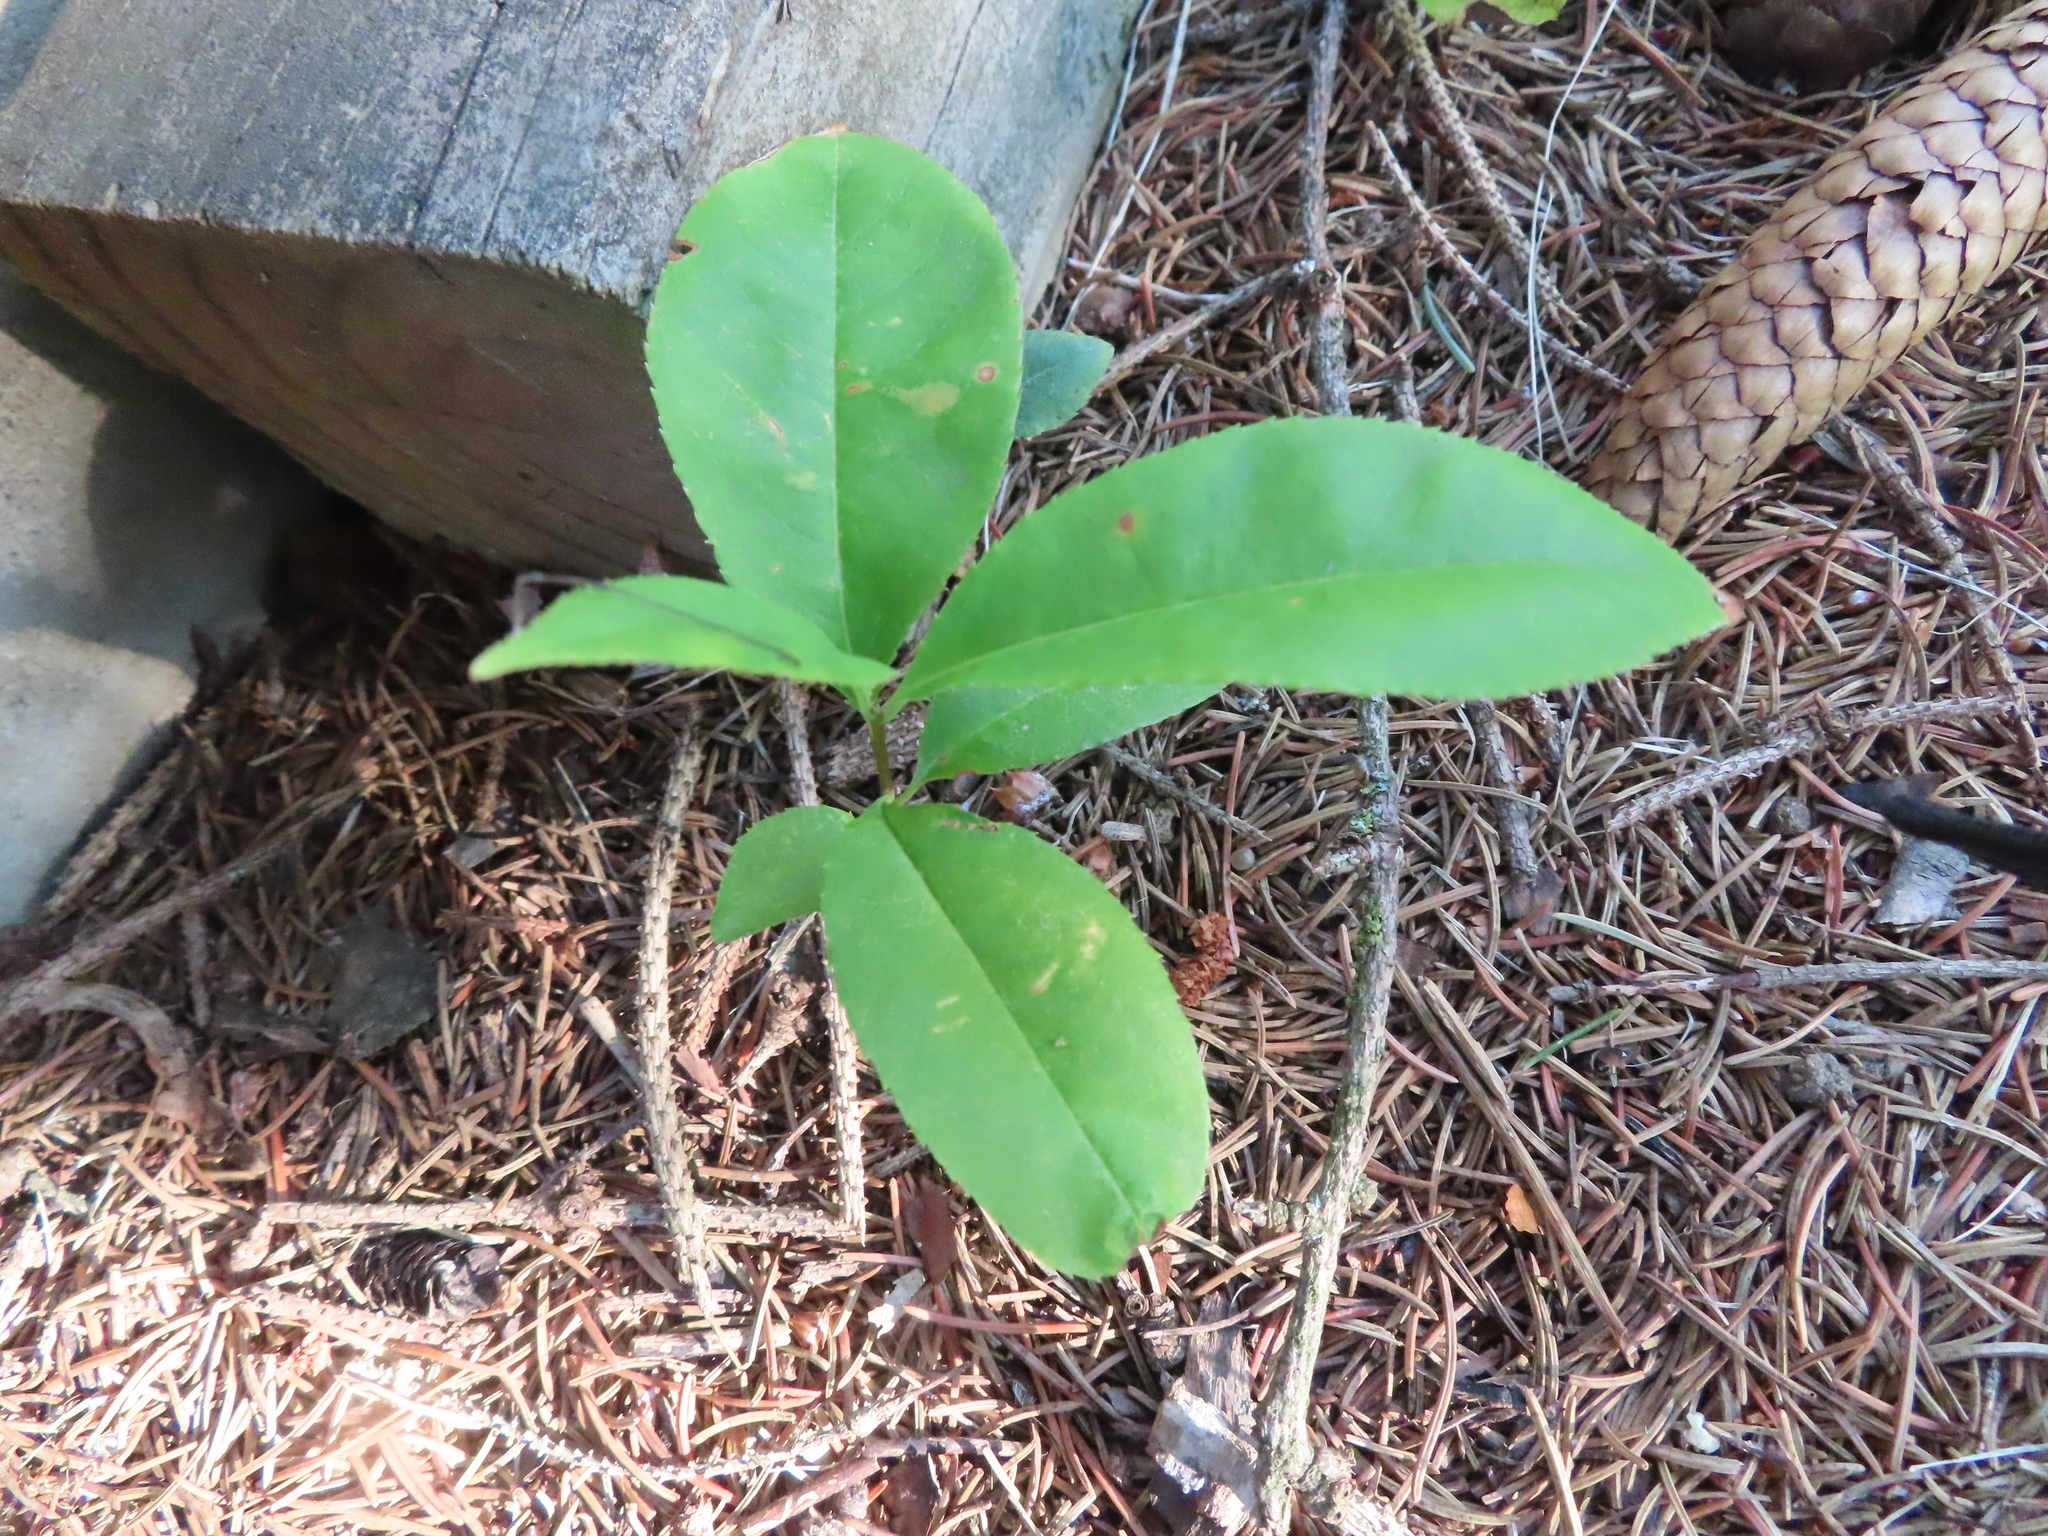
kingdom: Plantae
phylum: Tracheophyta
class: Magnoliopsida
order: Rosales
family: Rosaceae
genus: Prunus
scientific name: Prunus serotina
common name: Black cherry
